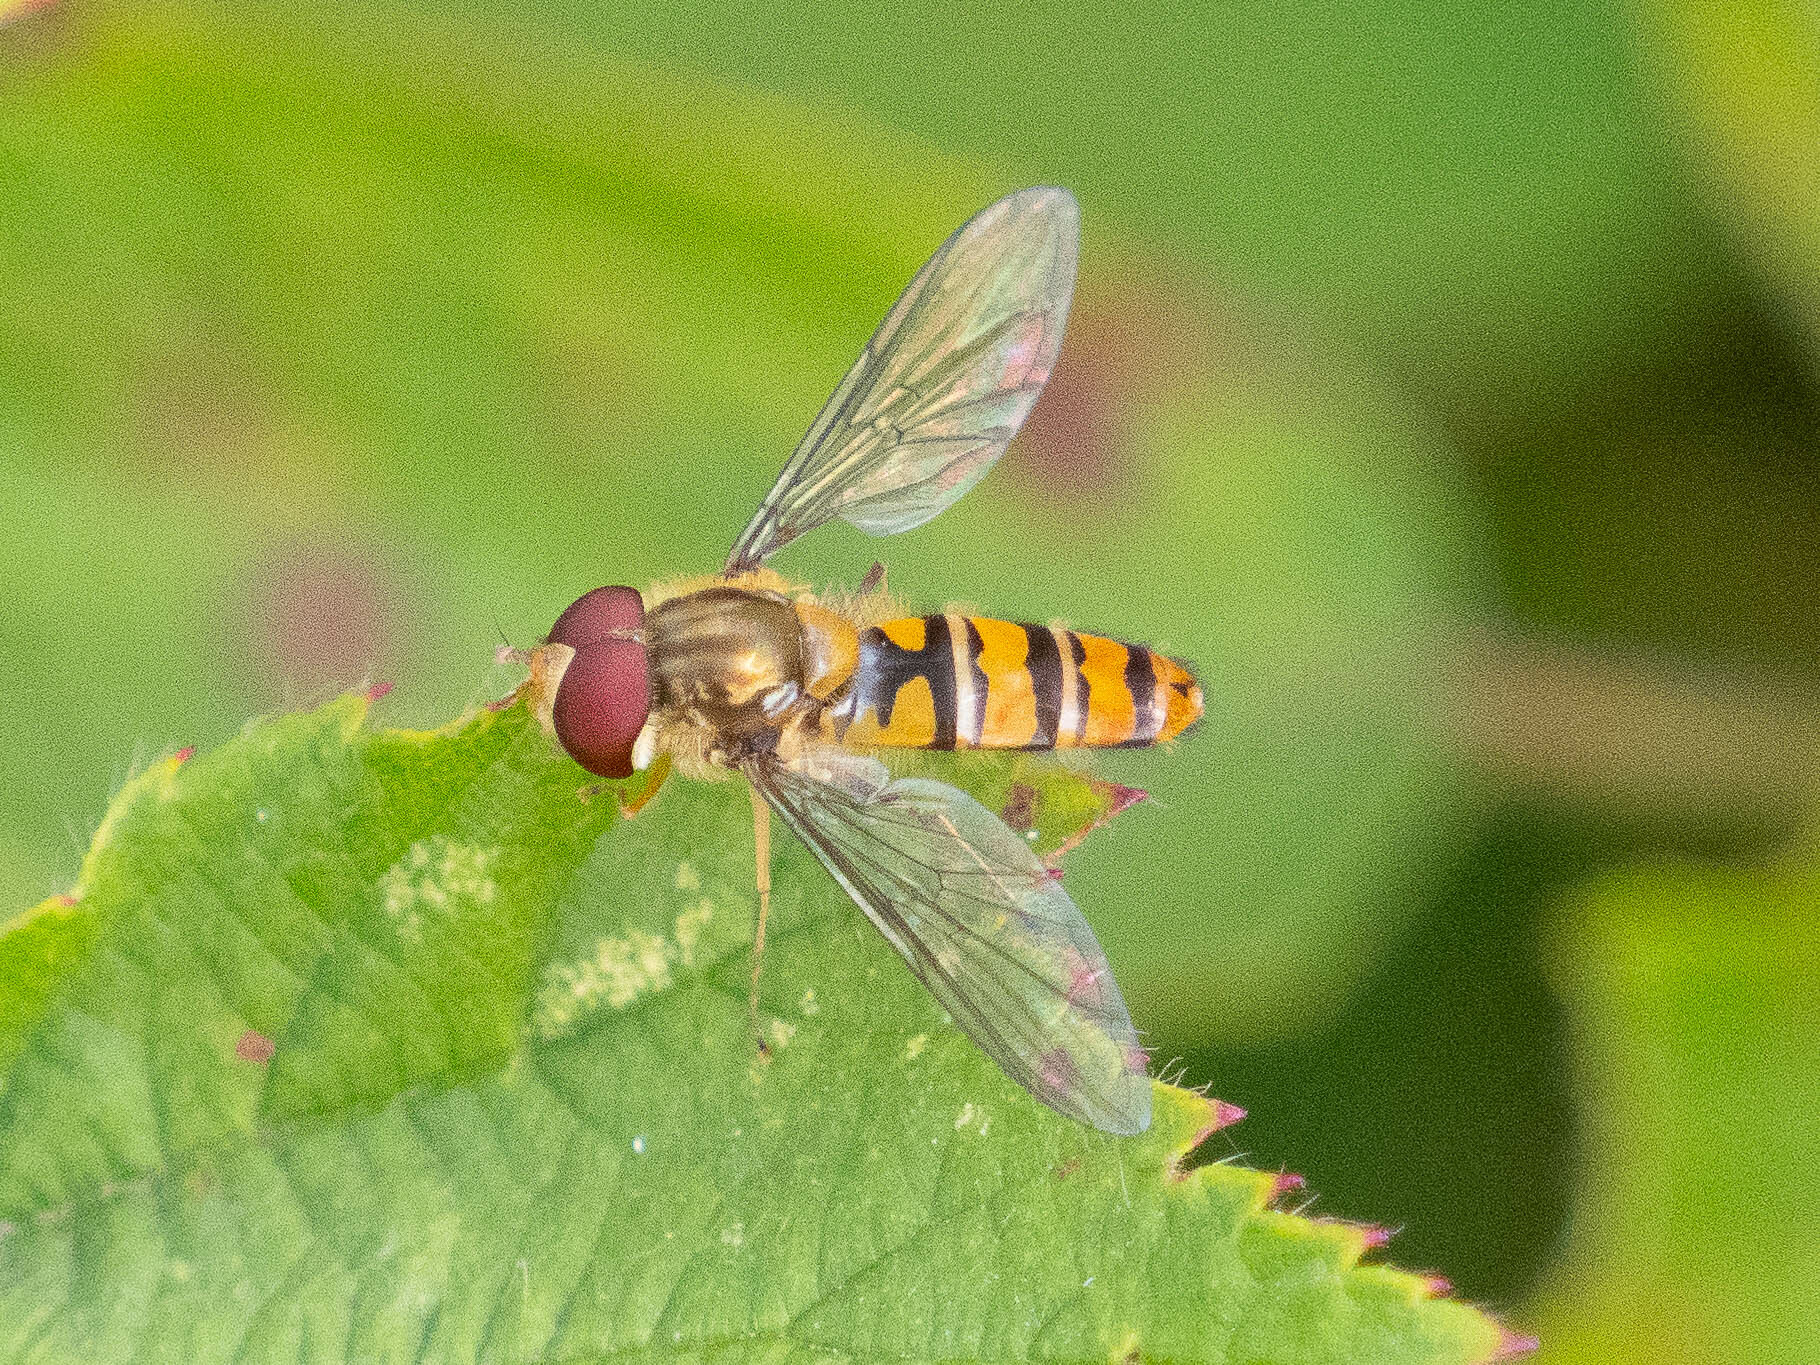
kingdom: Animalia
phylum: Arthropoda
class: Insecta
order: Diptera
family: Syrphidae
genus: Episyrphus
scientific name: Episyrphus balteatus
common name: Marmalade hoverfly
